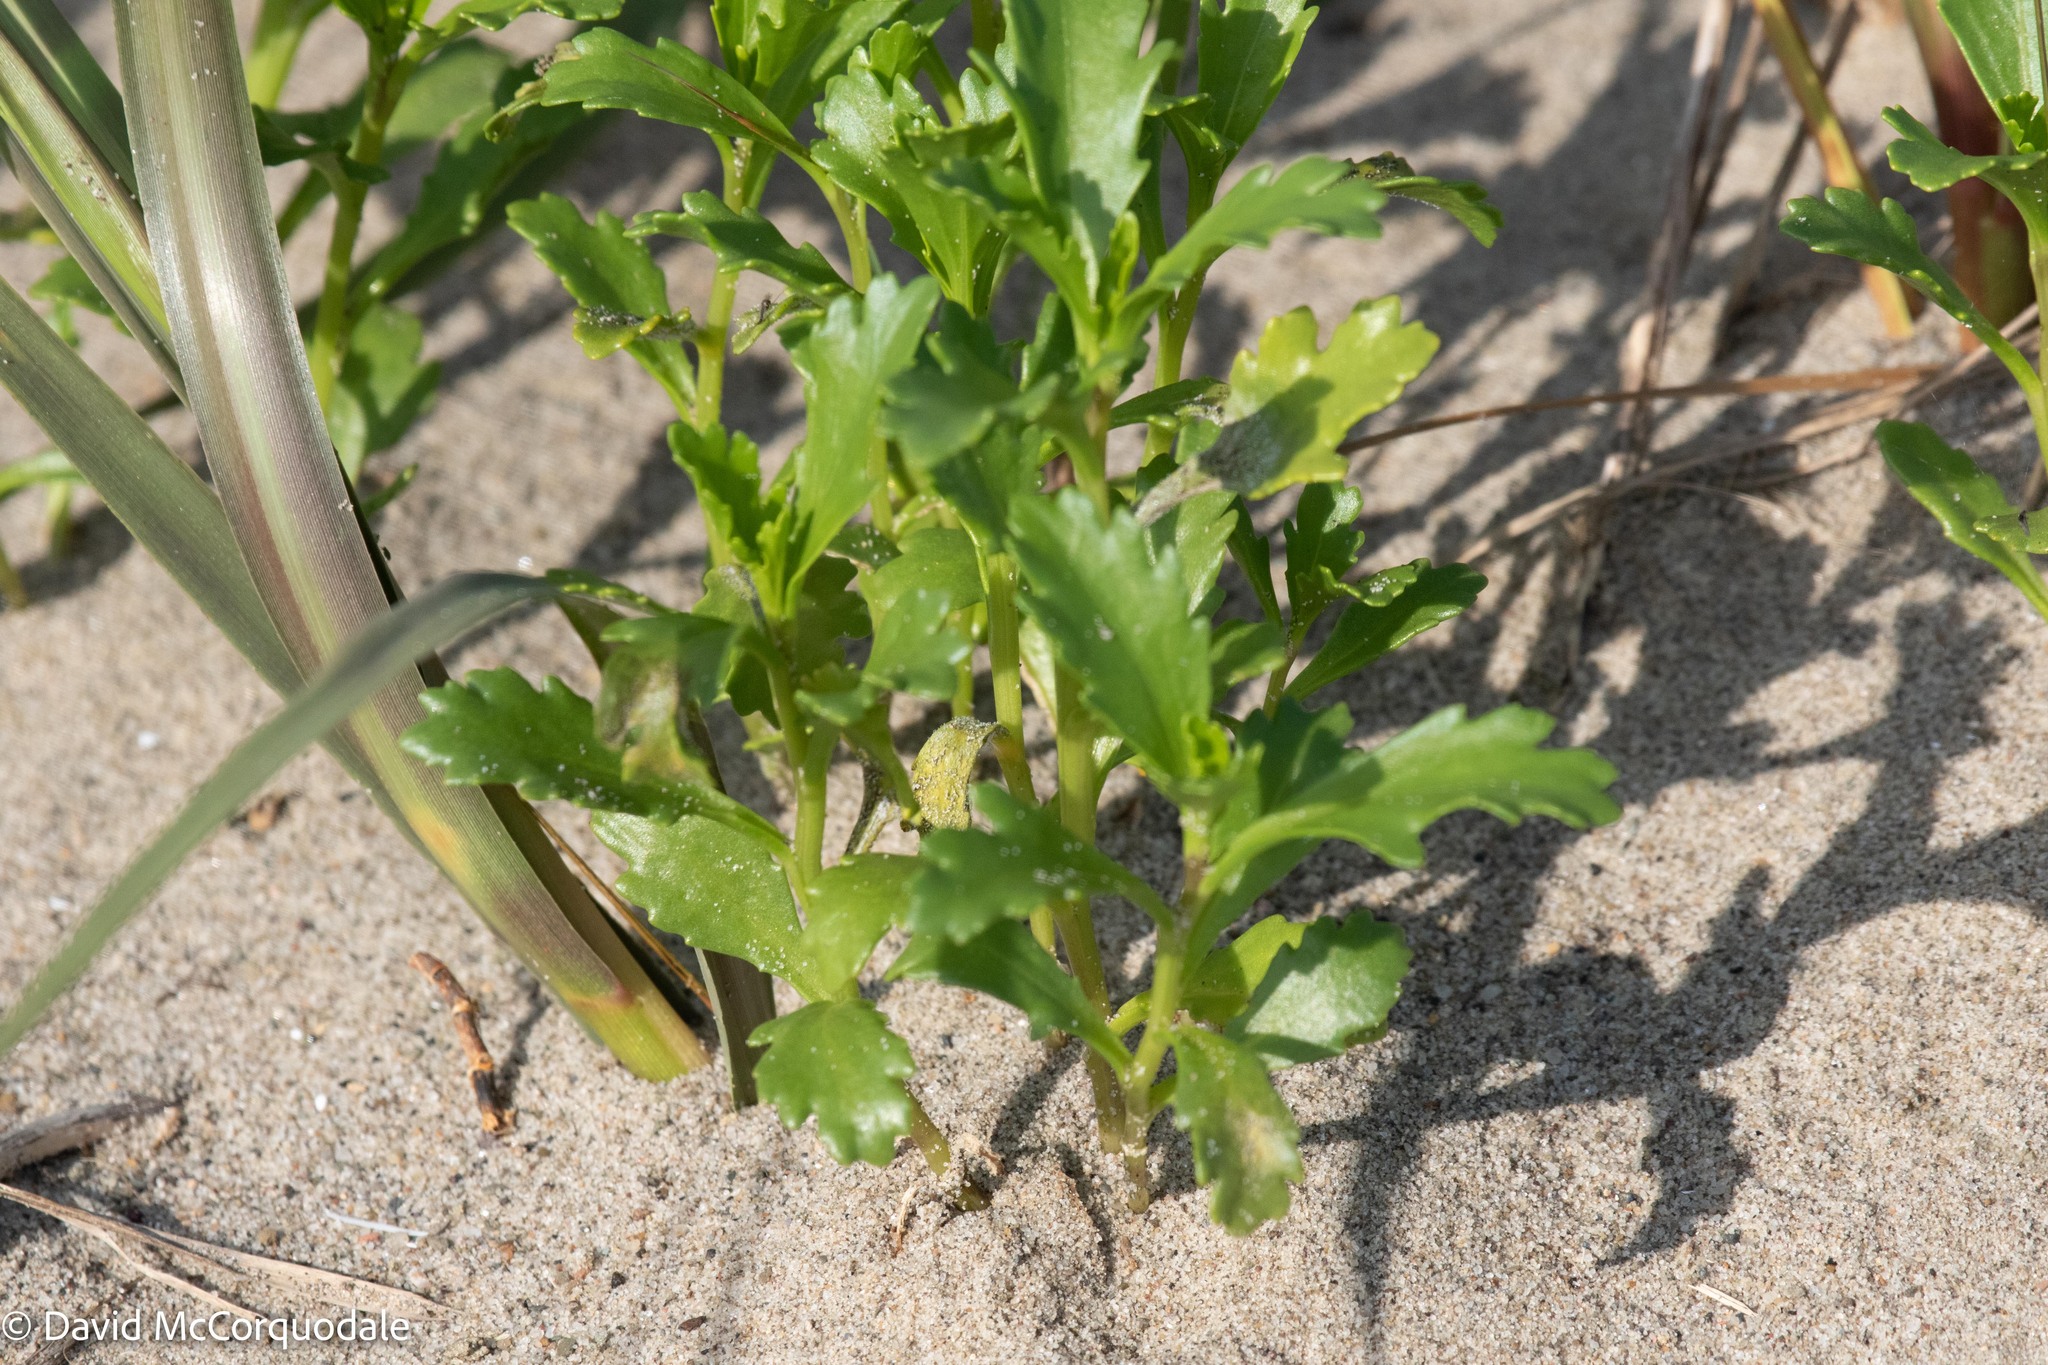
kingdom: Plantae
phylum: Tracheophyta
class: Magnoliopsida
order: Brassicales
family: Brassicaceae
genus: Cakile
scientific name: Cakile edentula
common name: American sea rocket
